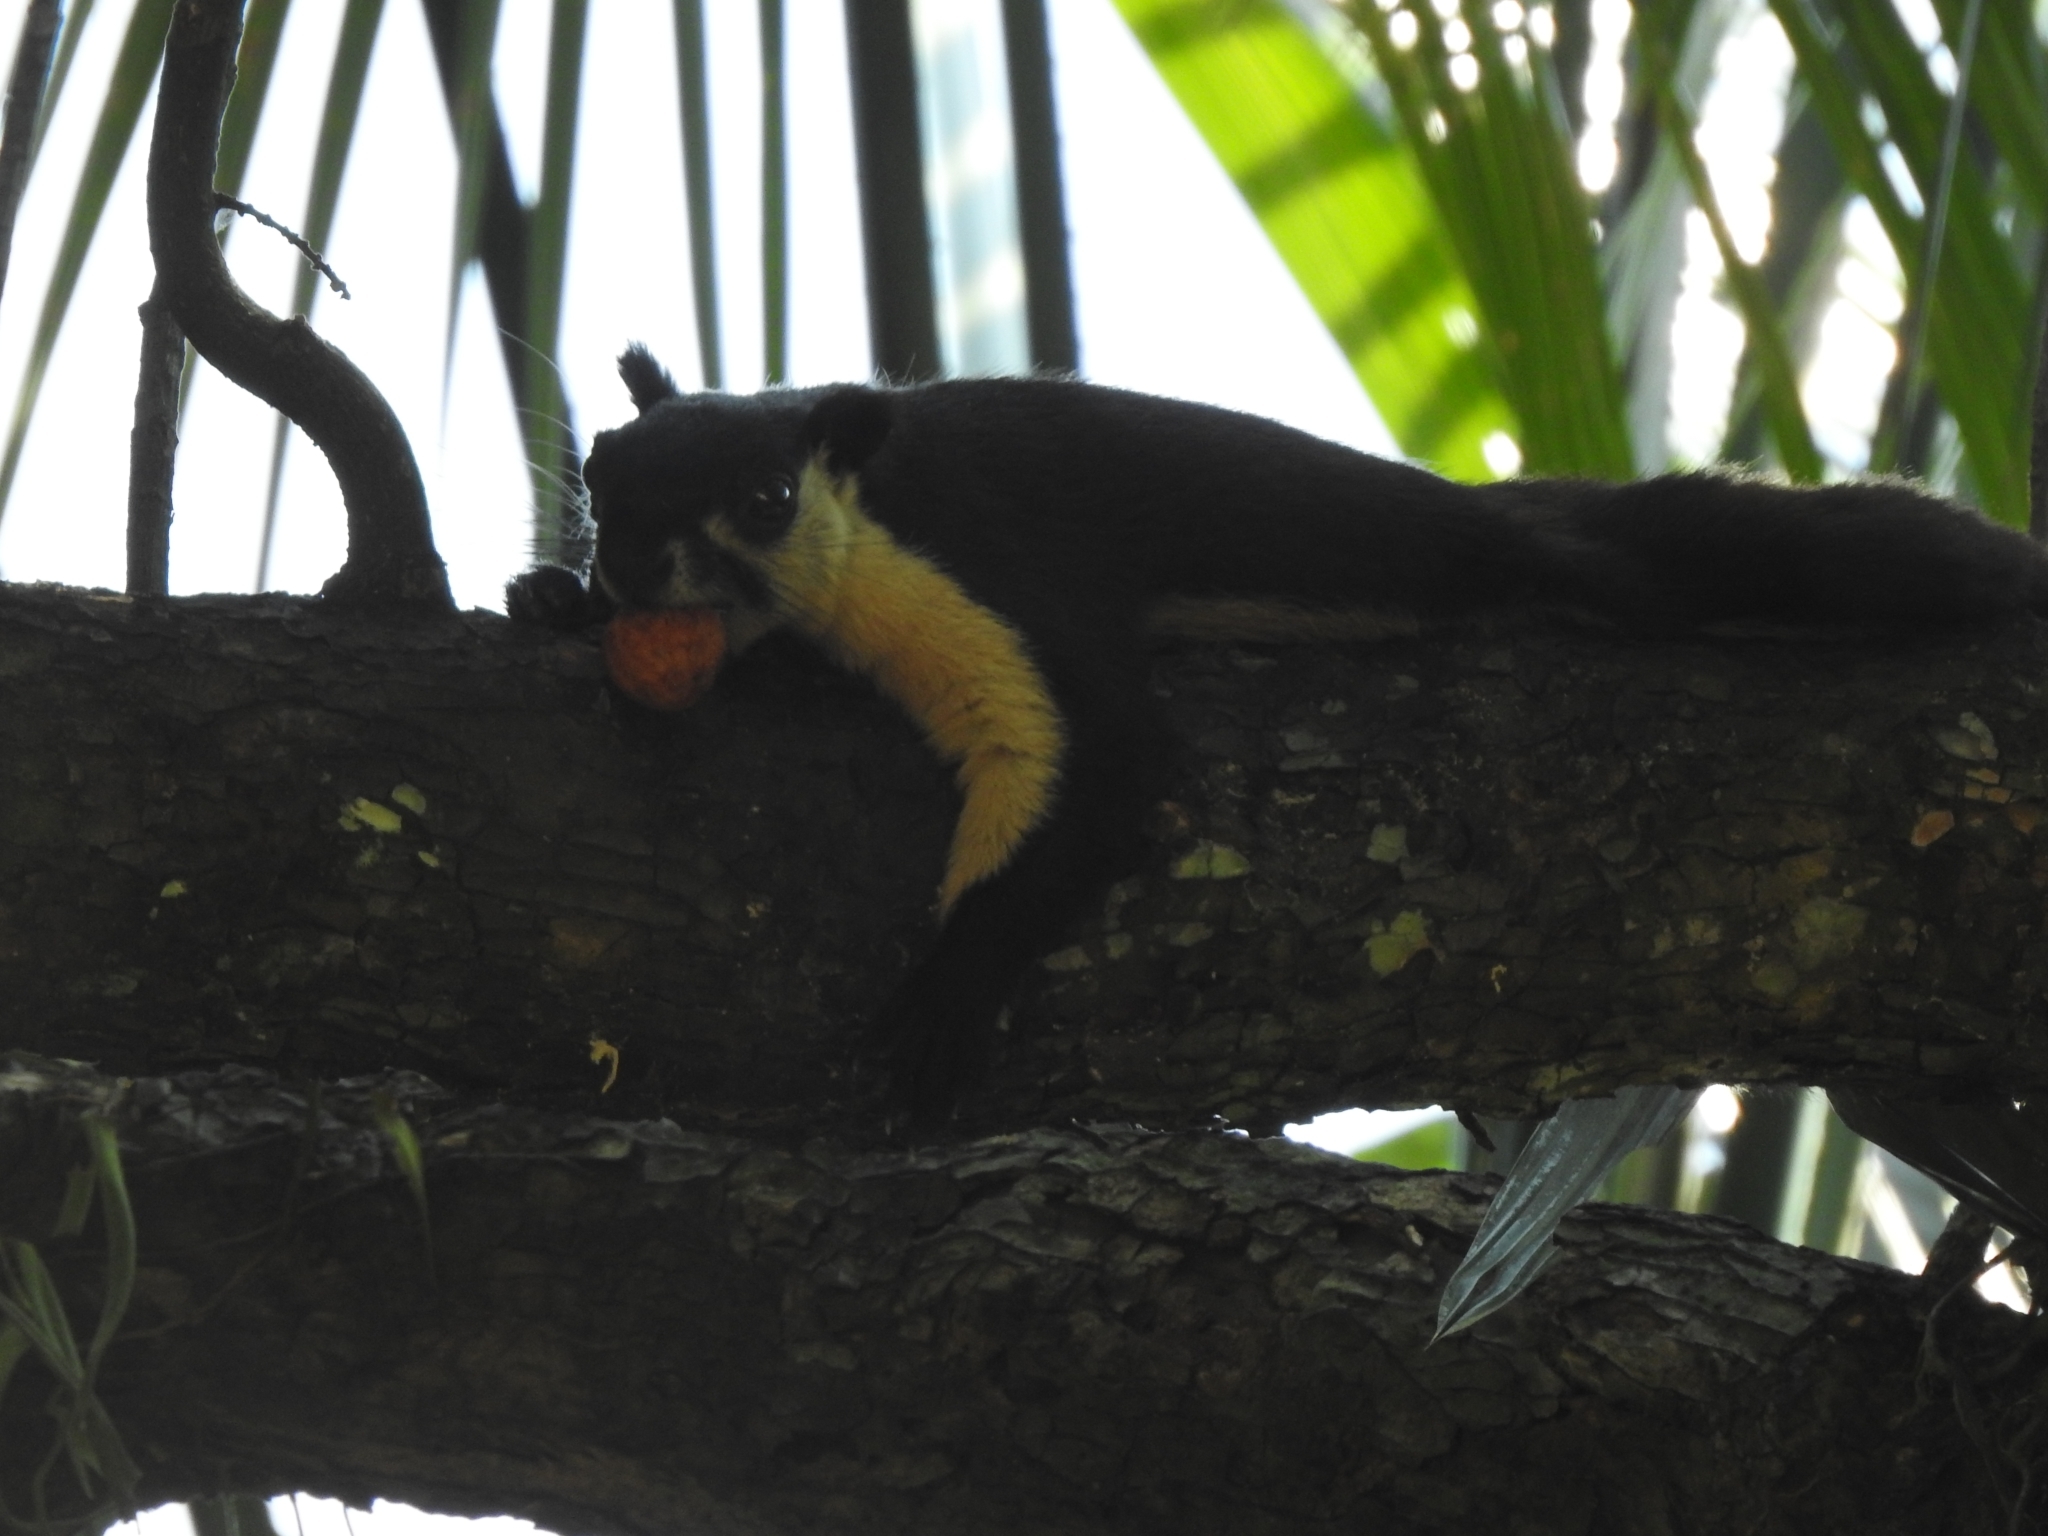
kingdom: Animalia
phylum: Chordata
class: Mammalia
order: Rodentia
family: Sciuridae
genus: Ratufa
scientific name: Ratufa bicolor
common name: Black giant squirrel
